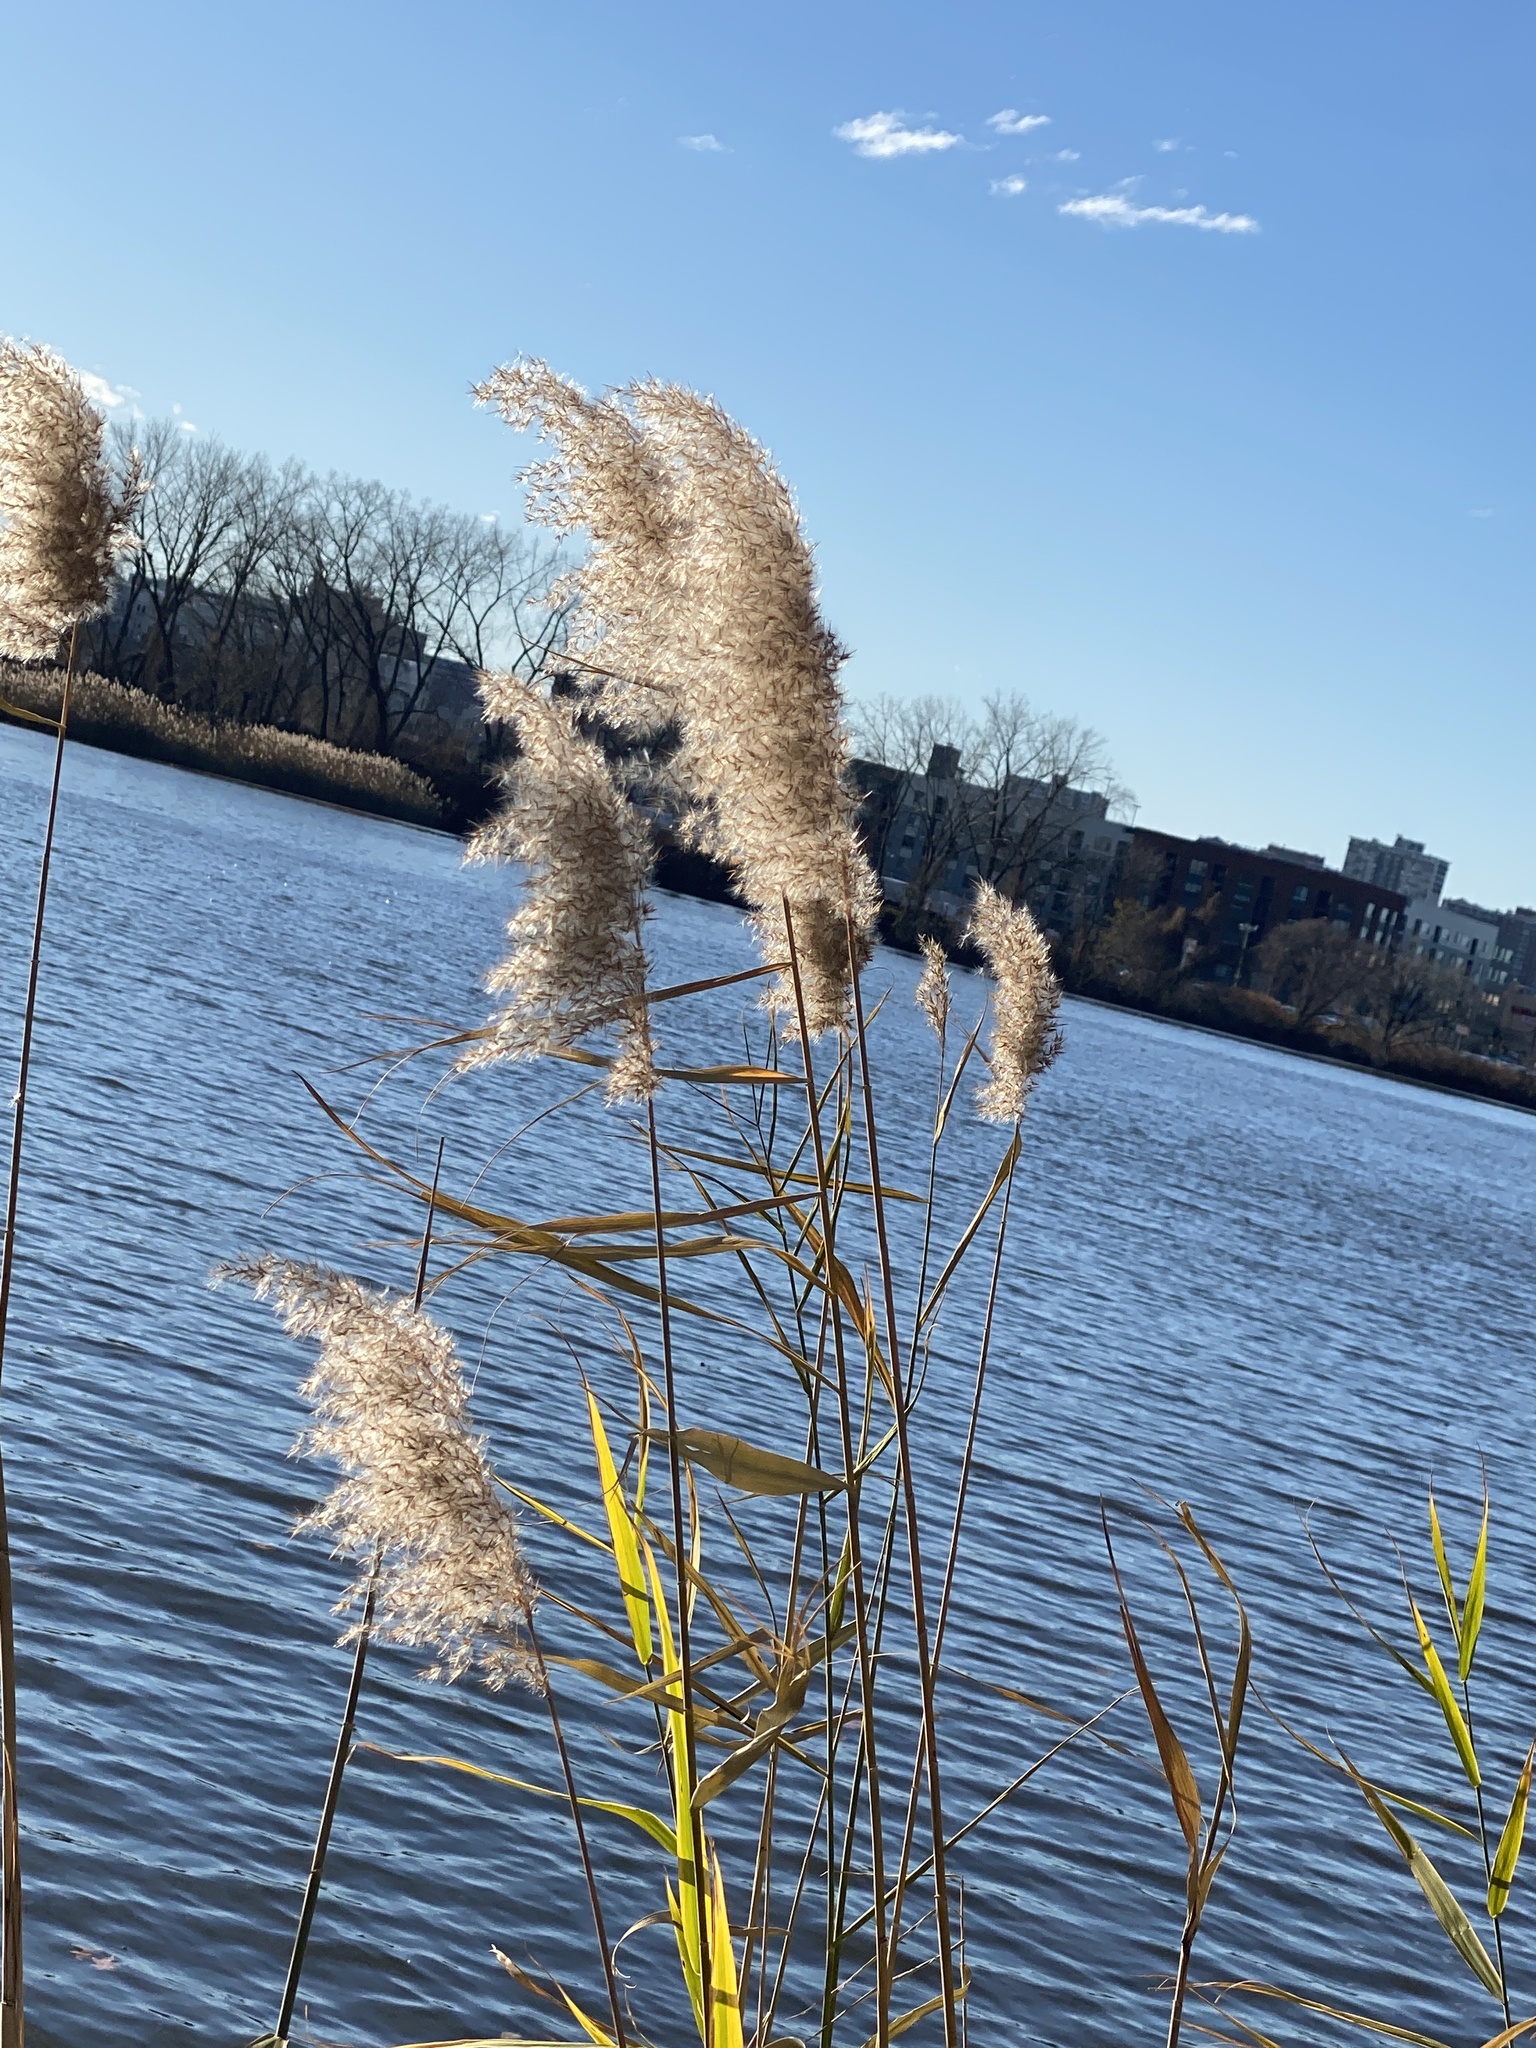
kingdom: Plantae
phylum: Tracheophyta
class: Liliopsida
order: Poales
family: Poaceae
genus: Phragmites
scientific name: Phragmites australis
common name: Common reed
